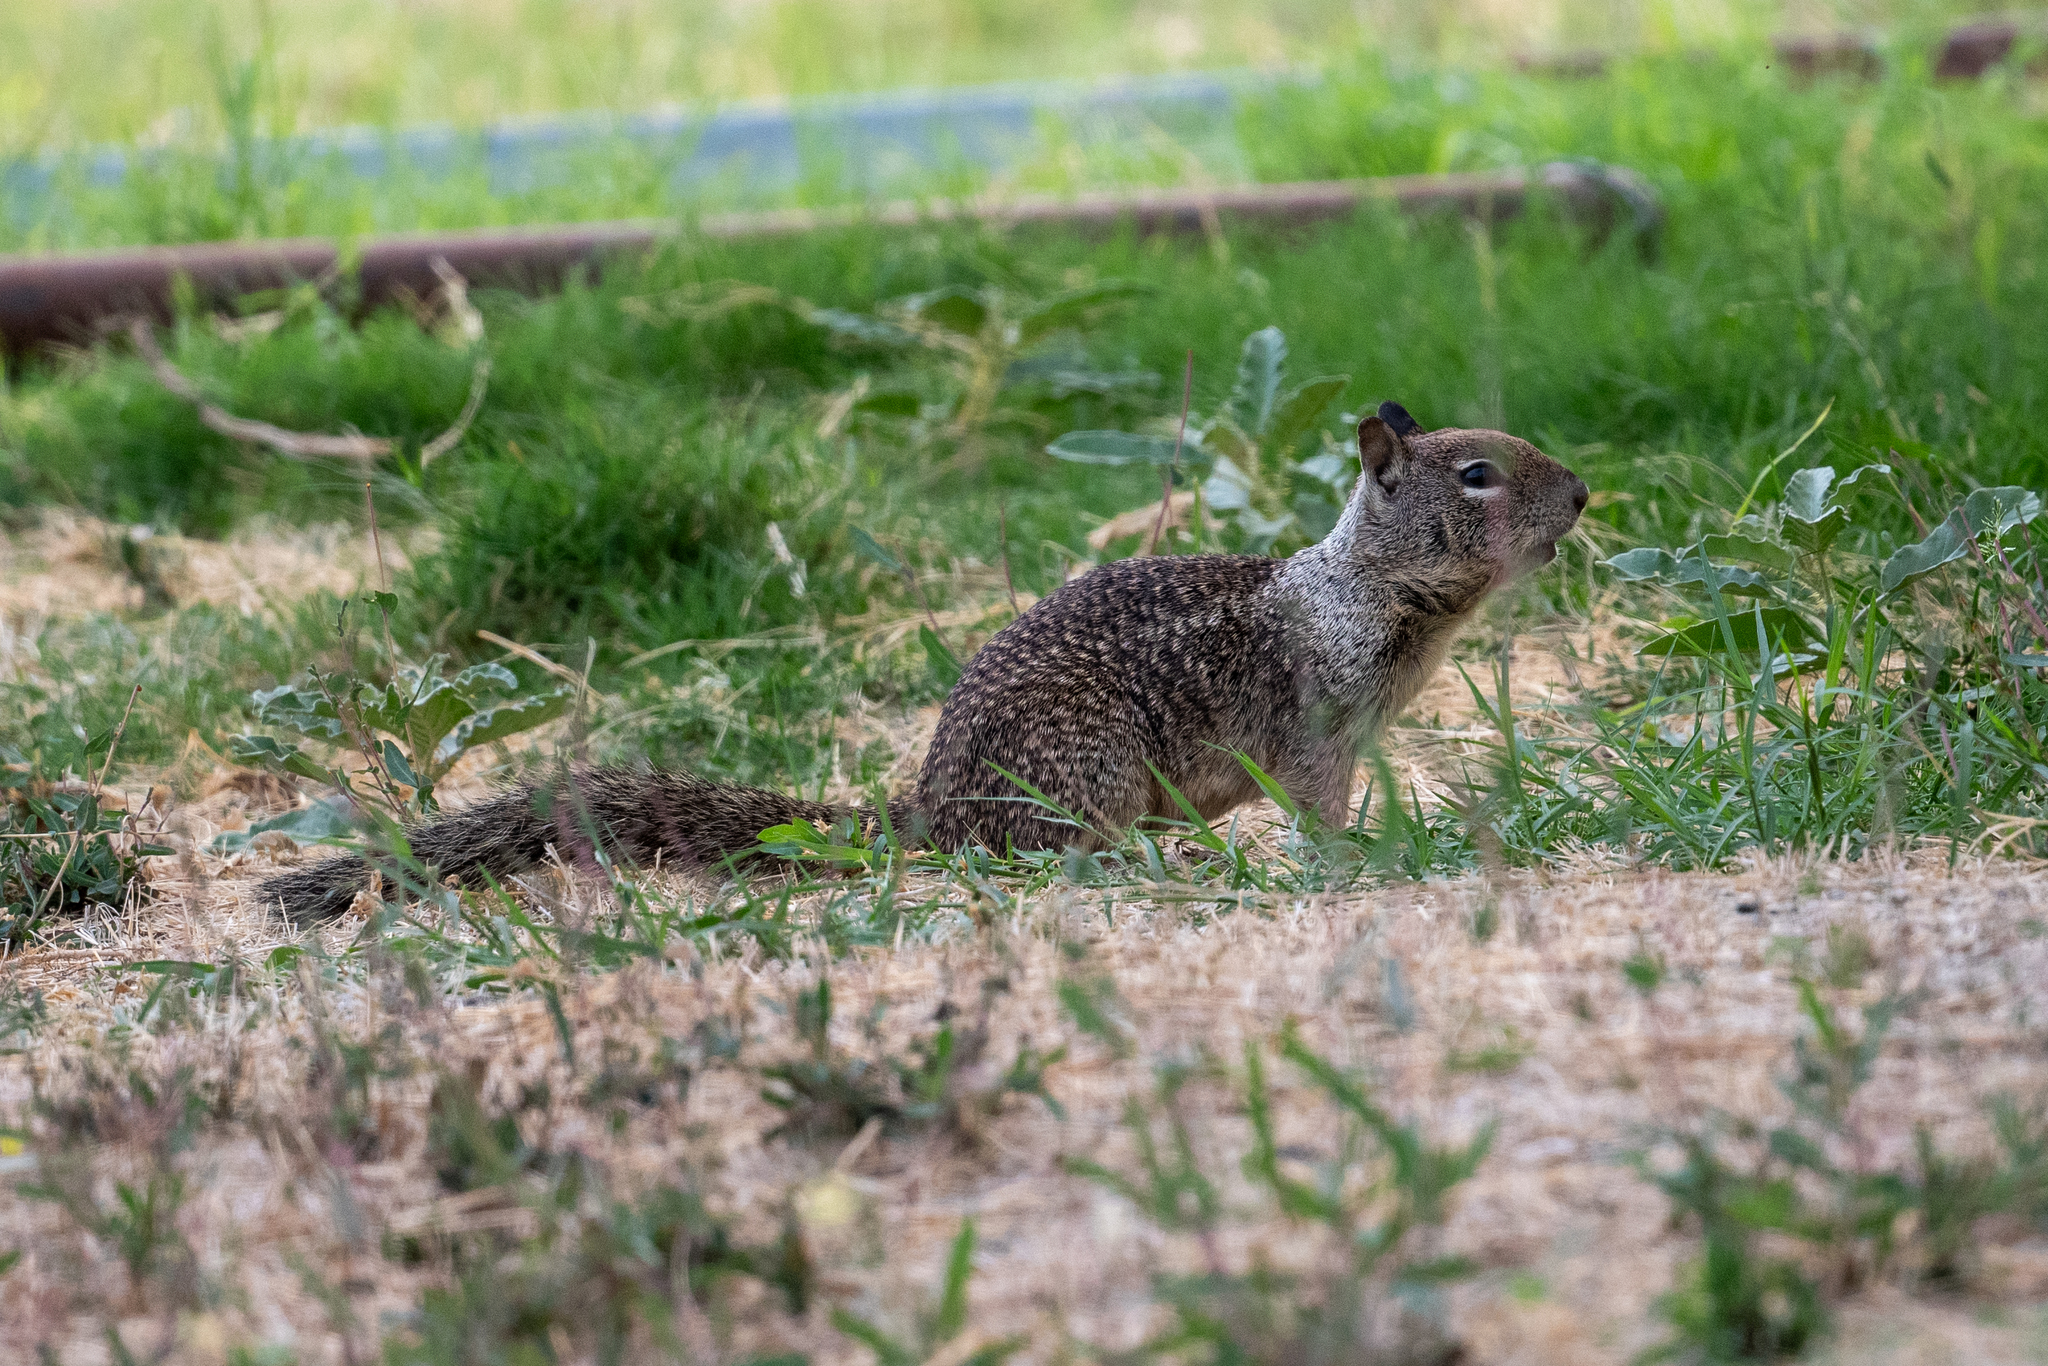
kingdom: Animalia
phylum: Chordata
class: Mammalia
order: Rodentia
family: Sciuridae
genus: Otospermophilus
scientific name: Otospermophilus beecheyi
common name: California ground squirrel
